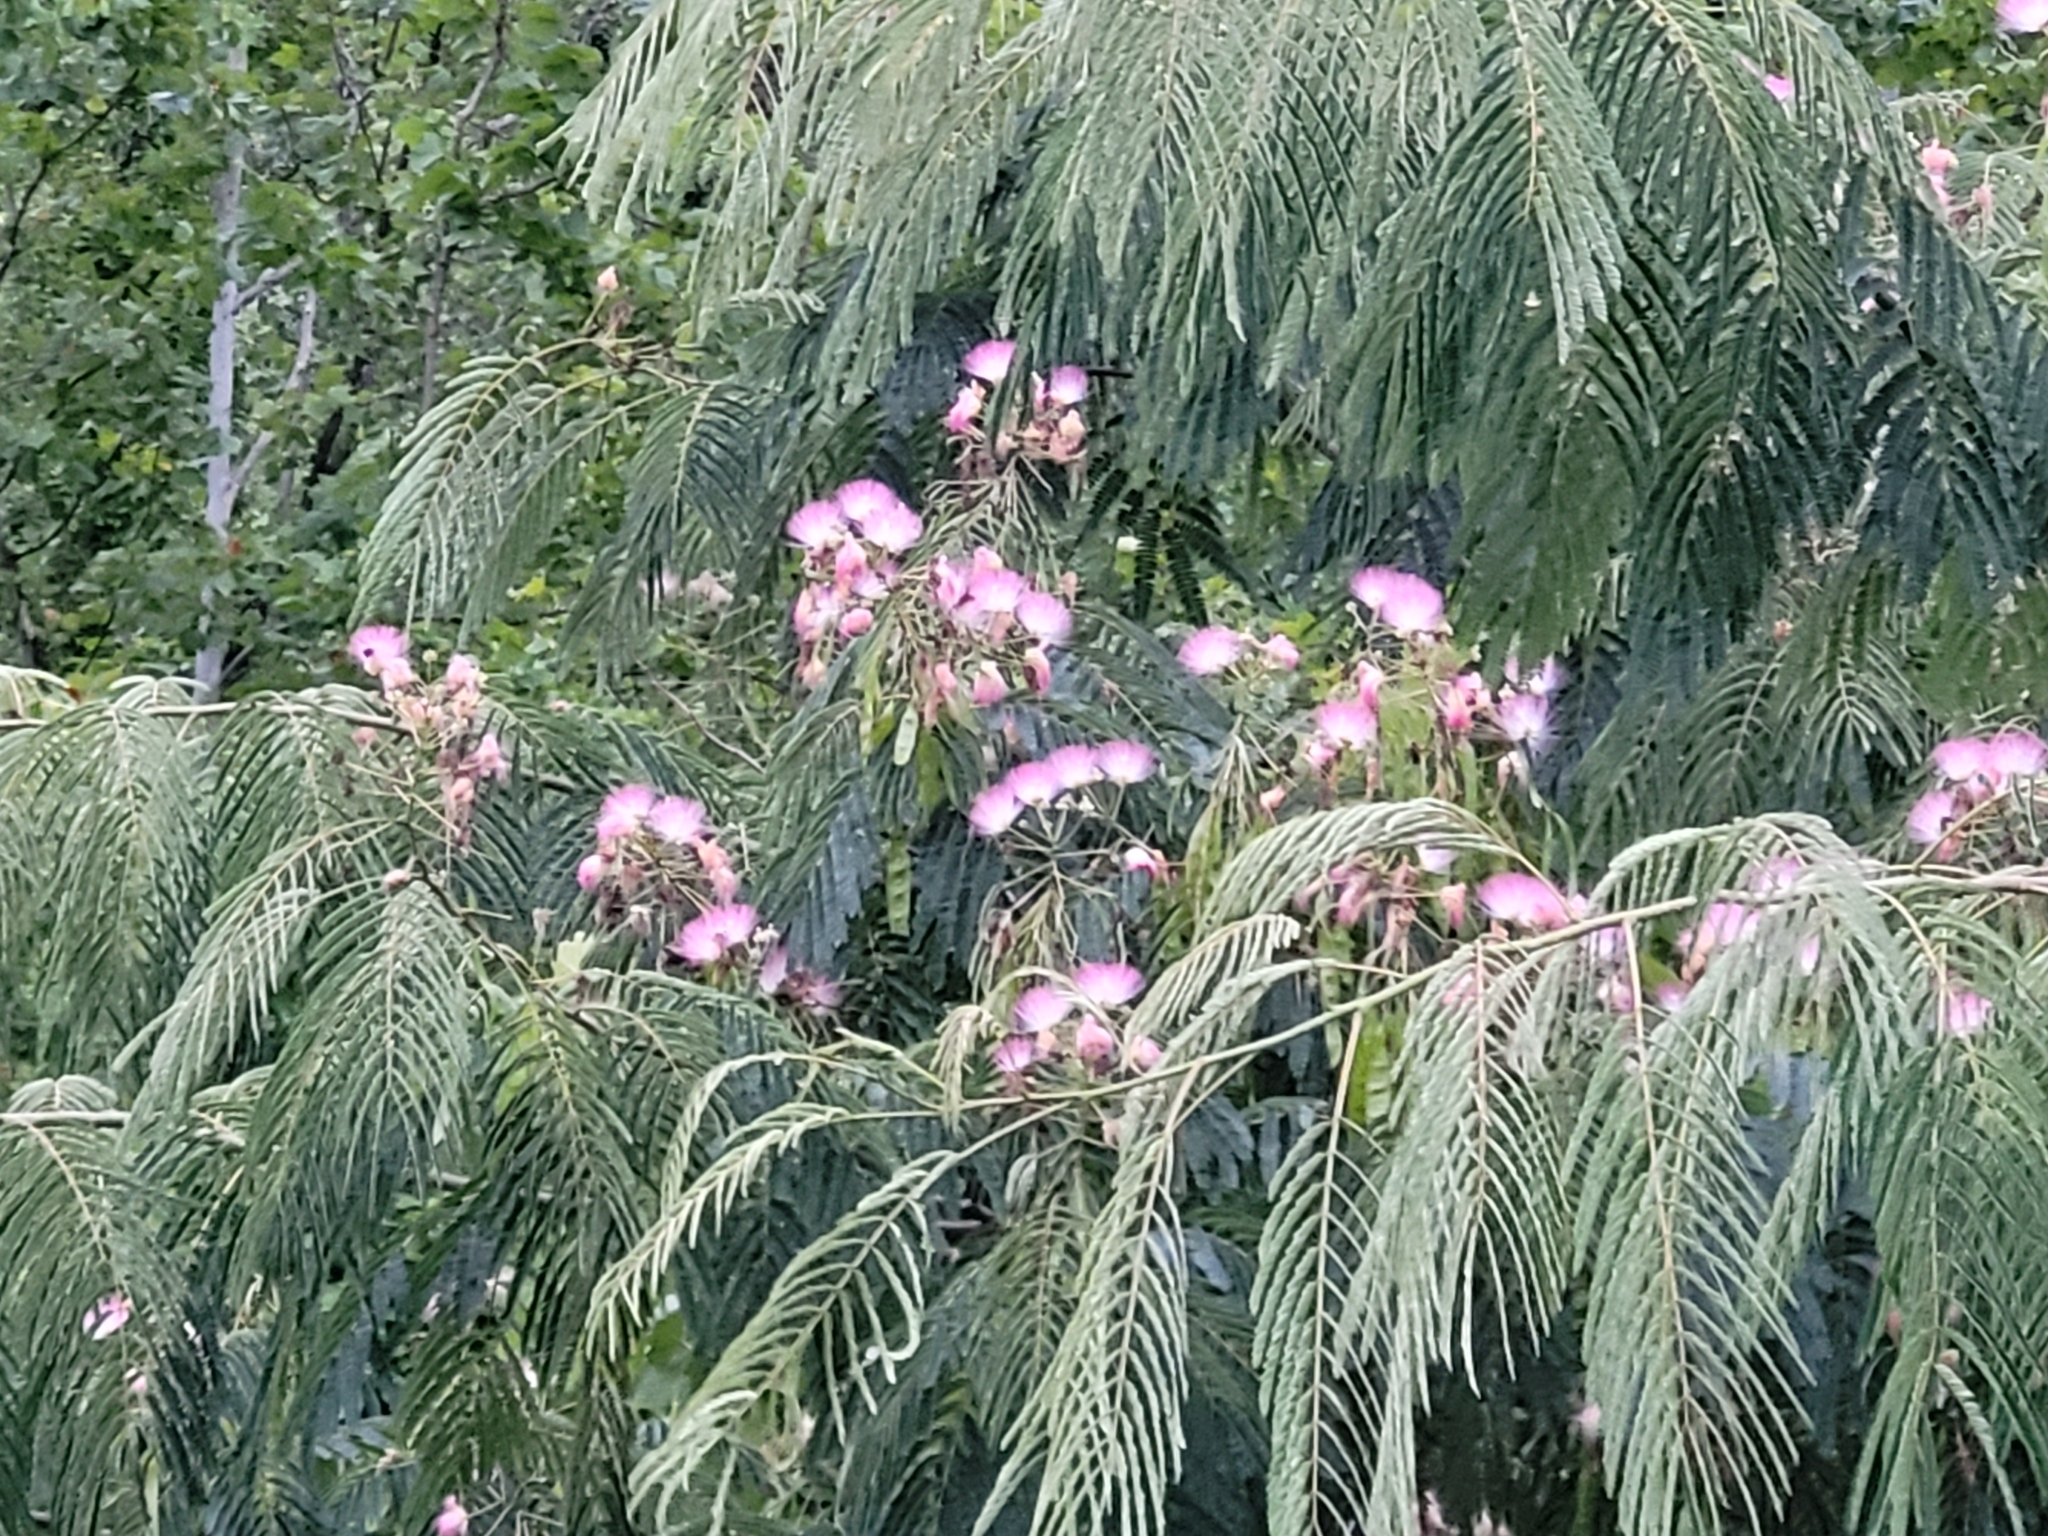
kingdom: Plantae
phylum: Tracheophyta
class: Magnoliopsida
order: Fabales
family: Fabaceae
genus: Albizia
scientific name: Albizia julibrissin
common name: Silktree
